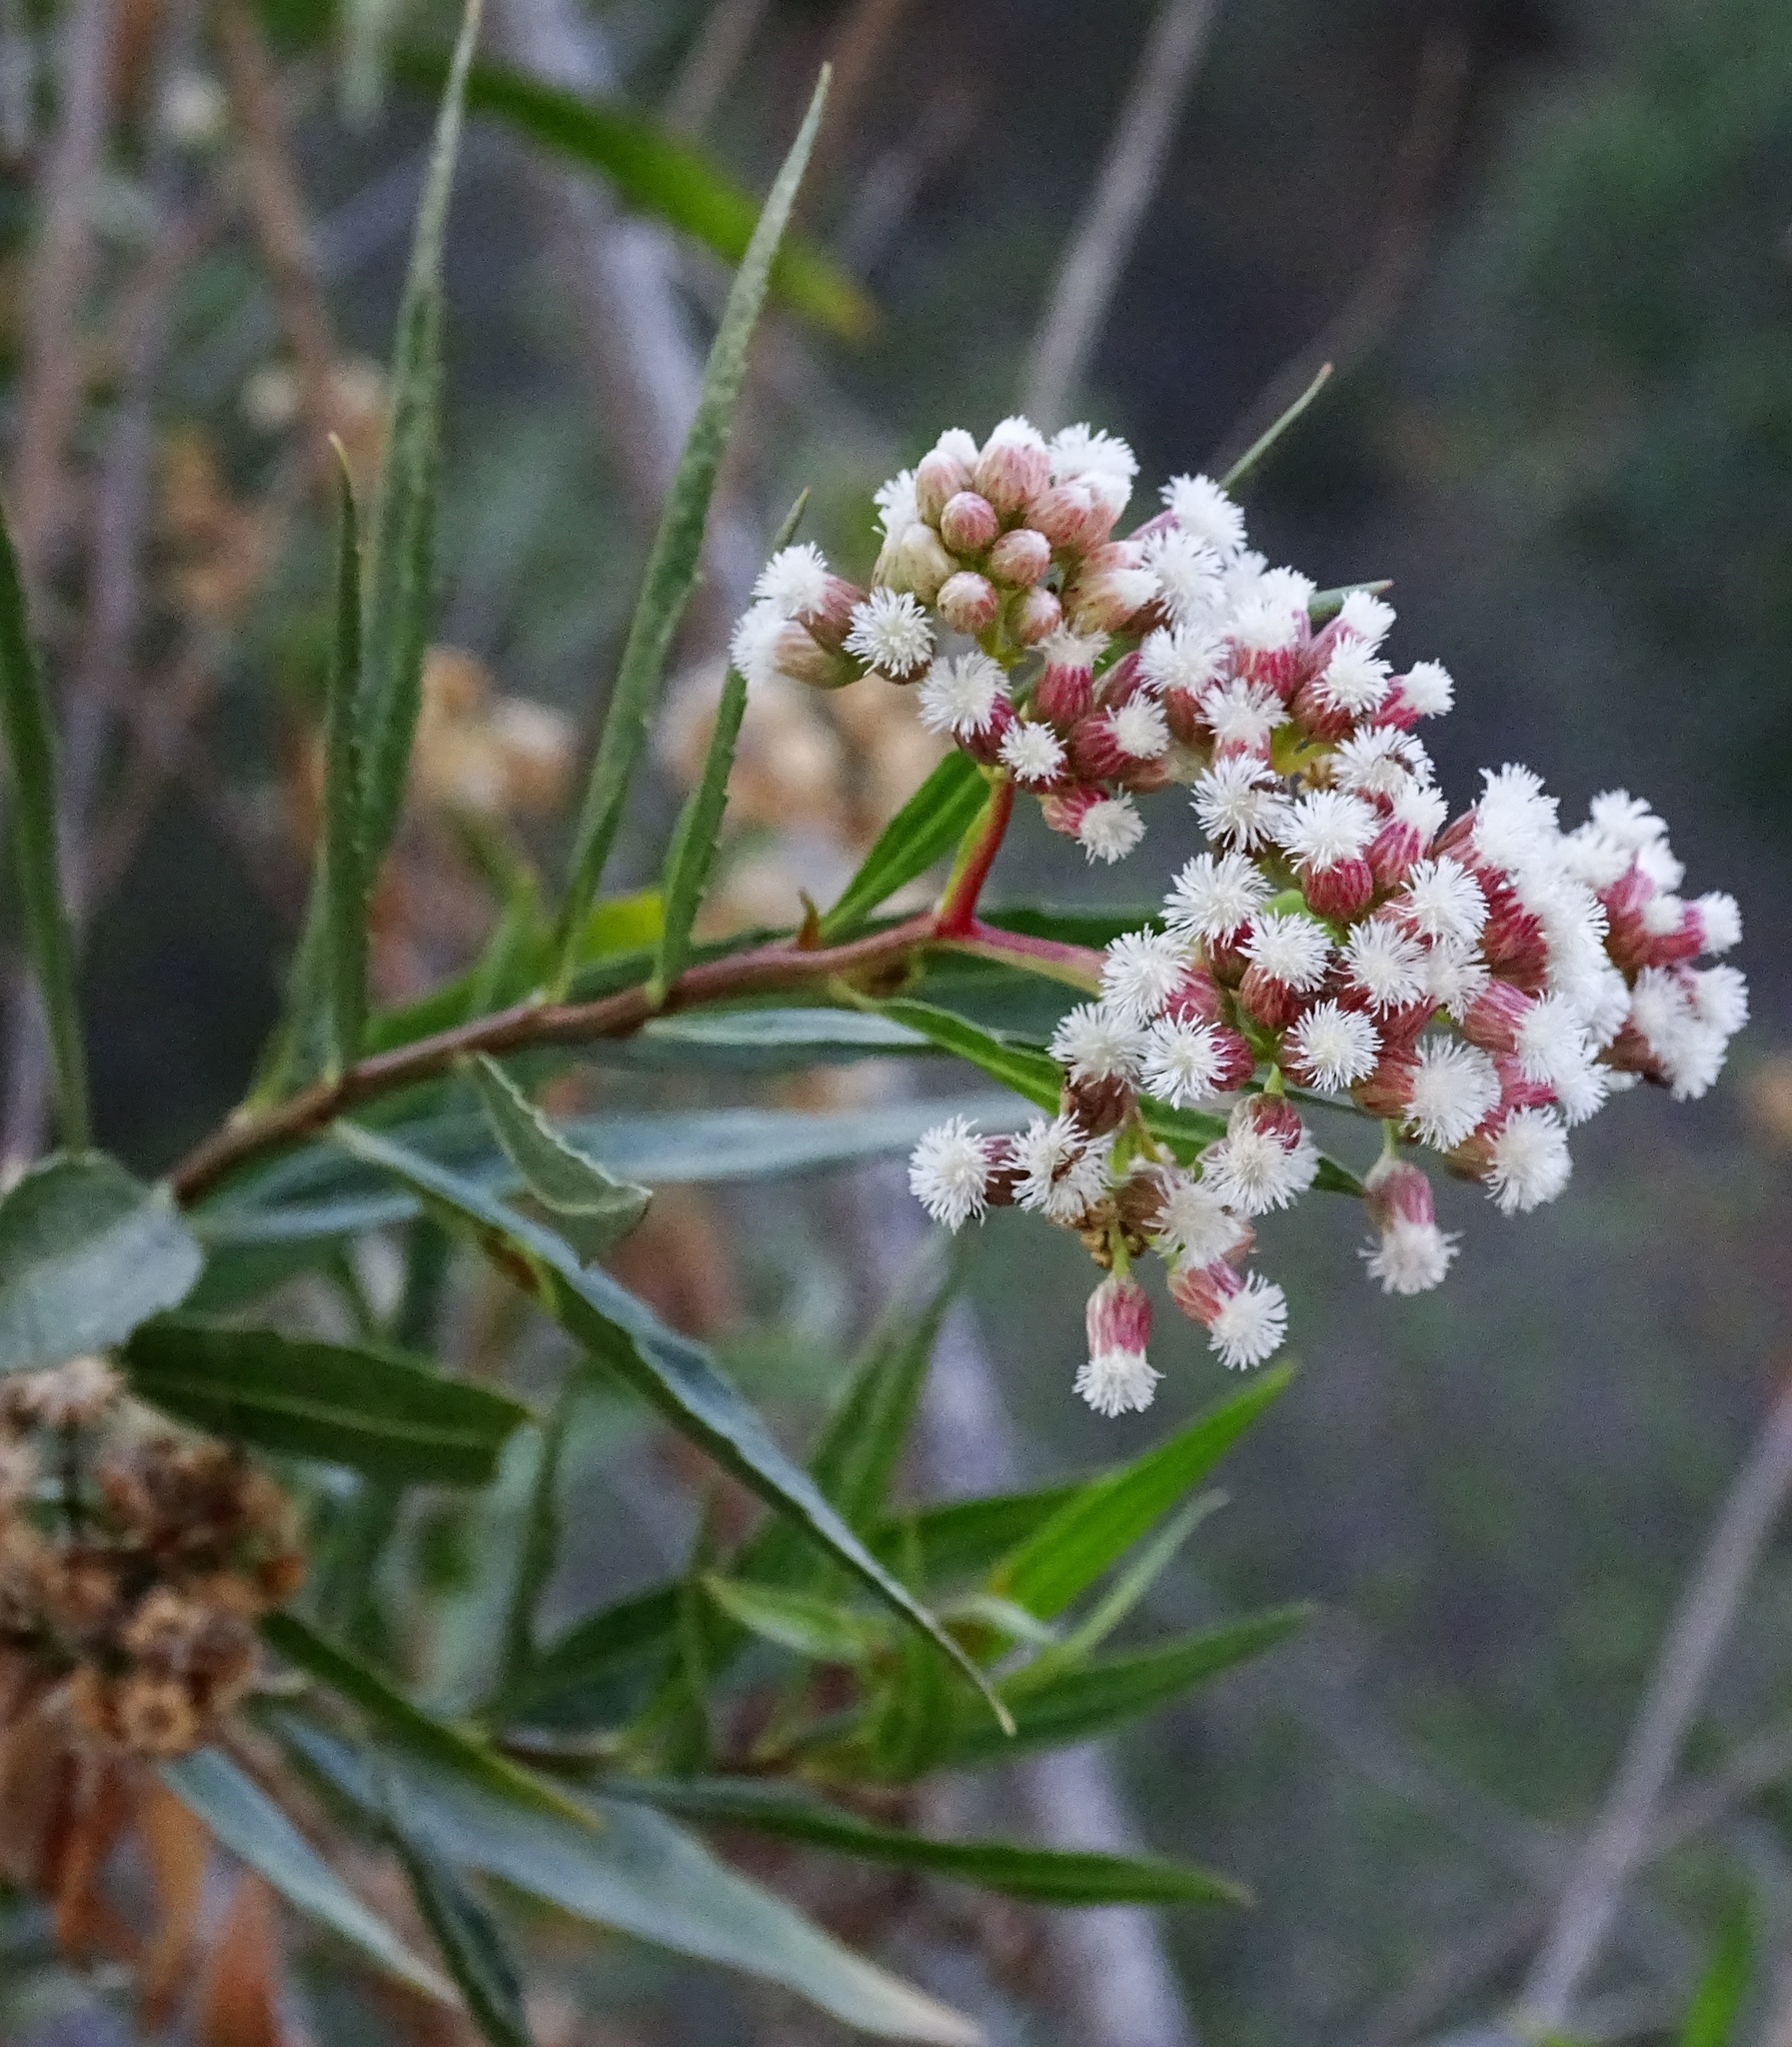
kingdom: Plantae
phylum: Tracheophyta
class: Magnoliopsida
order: Asterales
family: Asteraceae
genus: Baccharis
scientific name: Baccharis salicifolia
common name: Sticky baccharis
